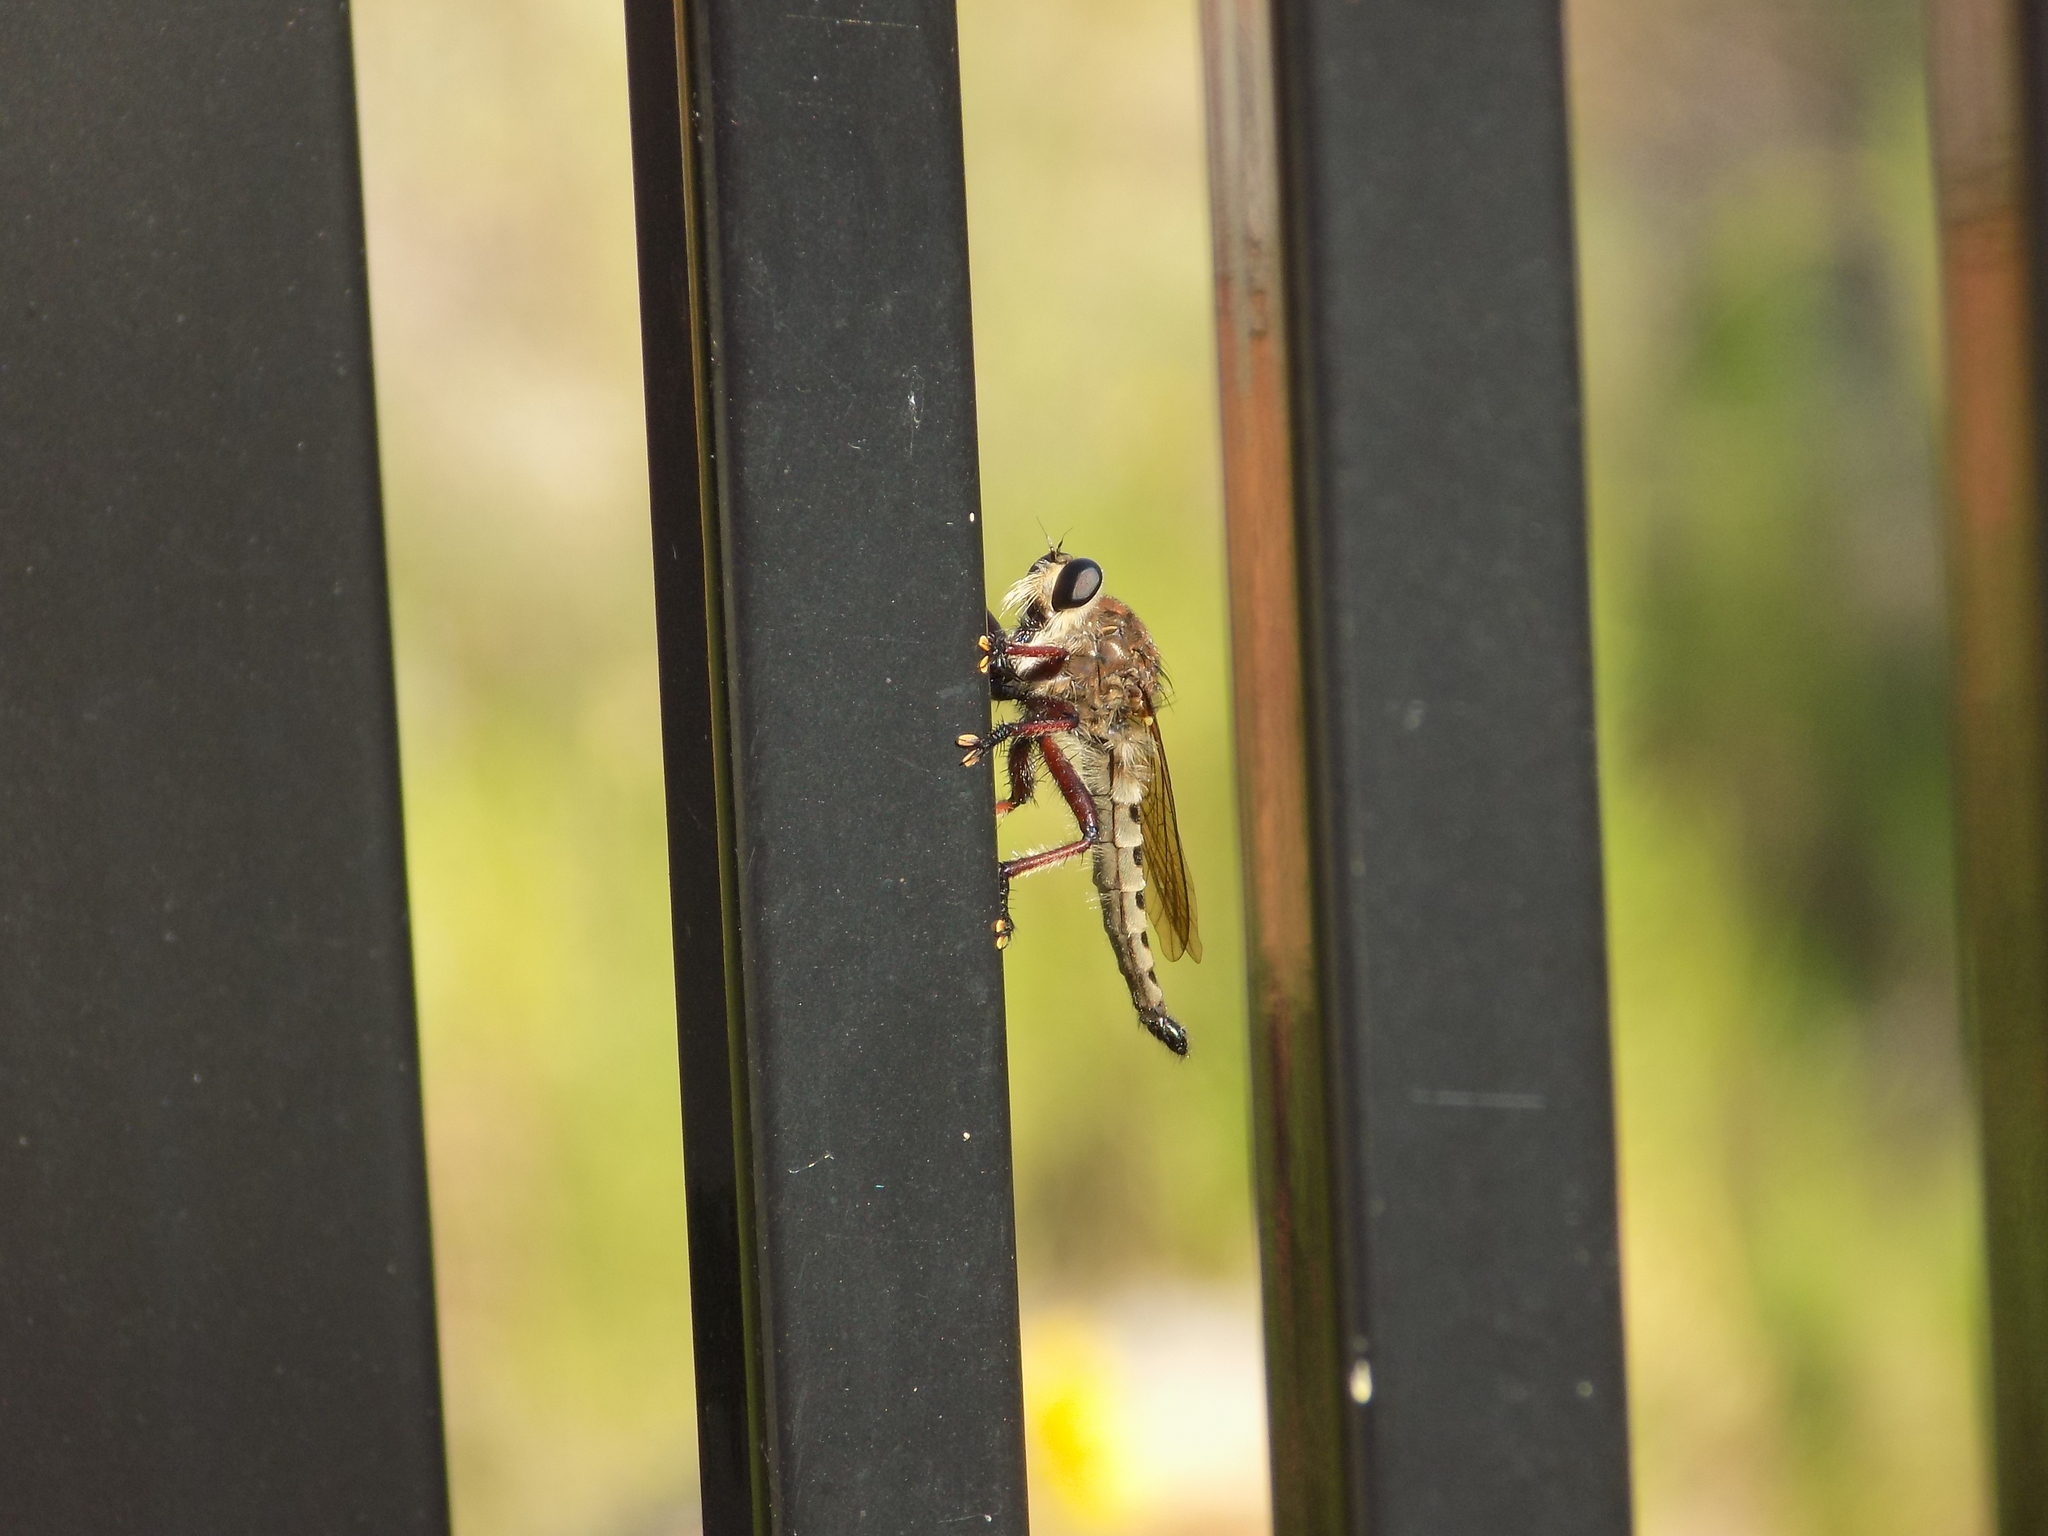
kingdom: Animalia
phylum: Arthropoda
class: Insecta
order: Diptera
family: Asilidae
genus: Promachus
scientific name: Promachus hinei
